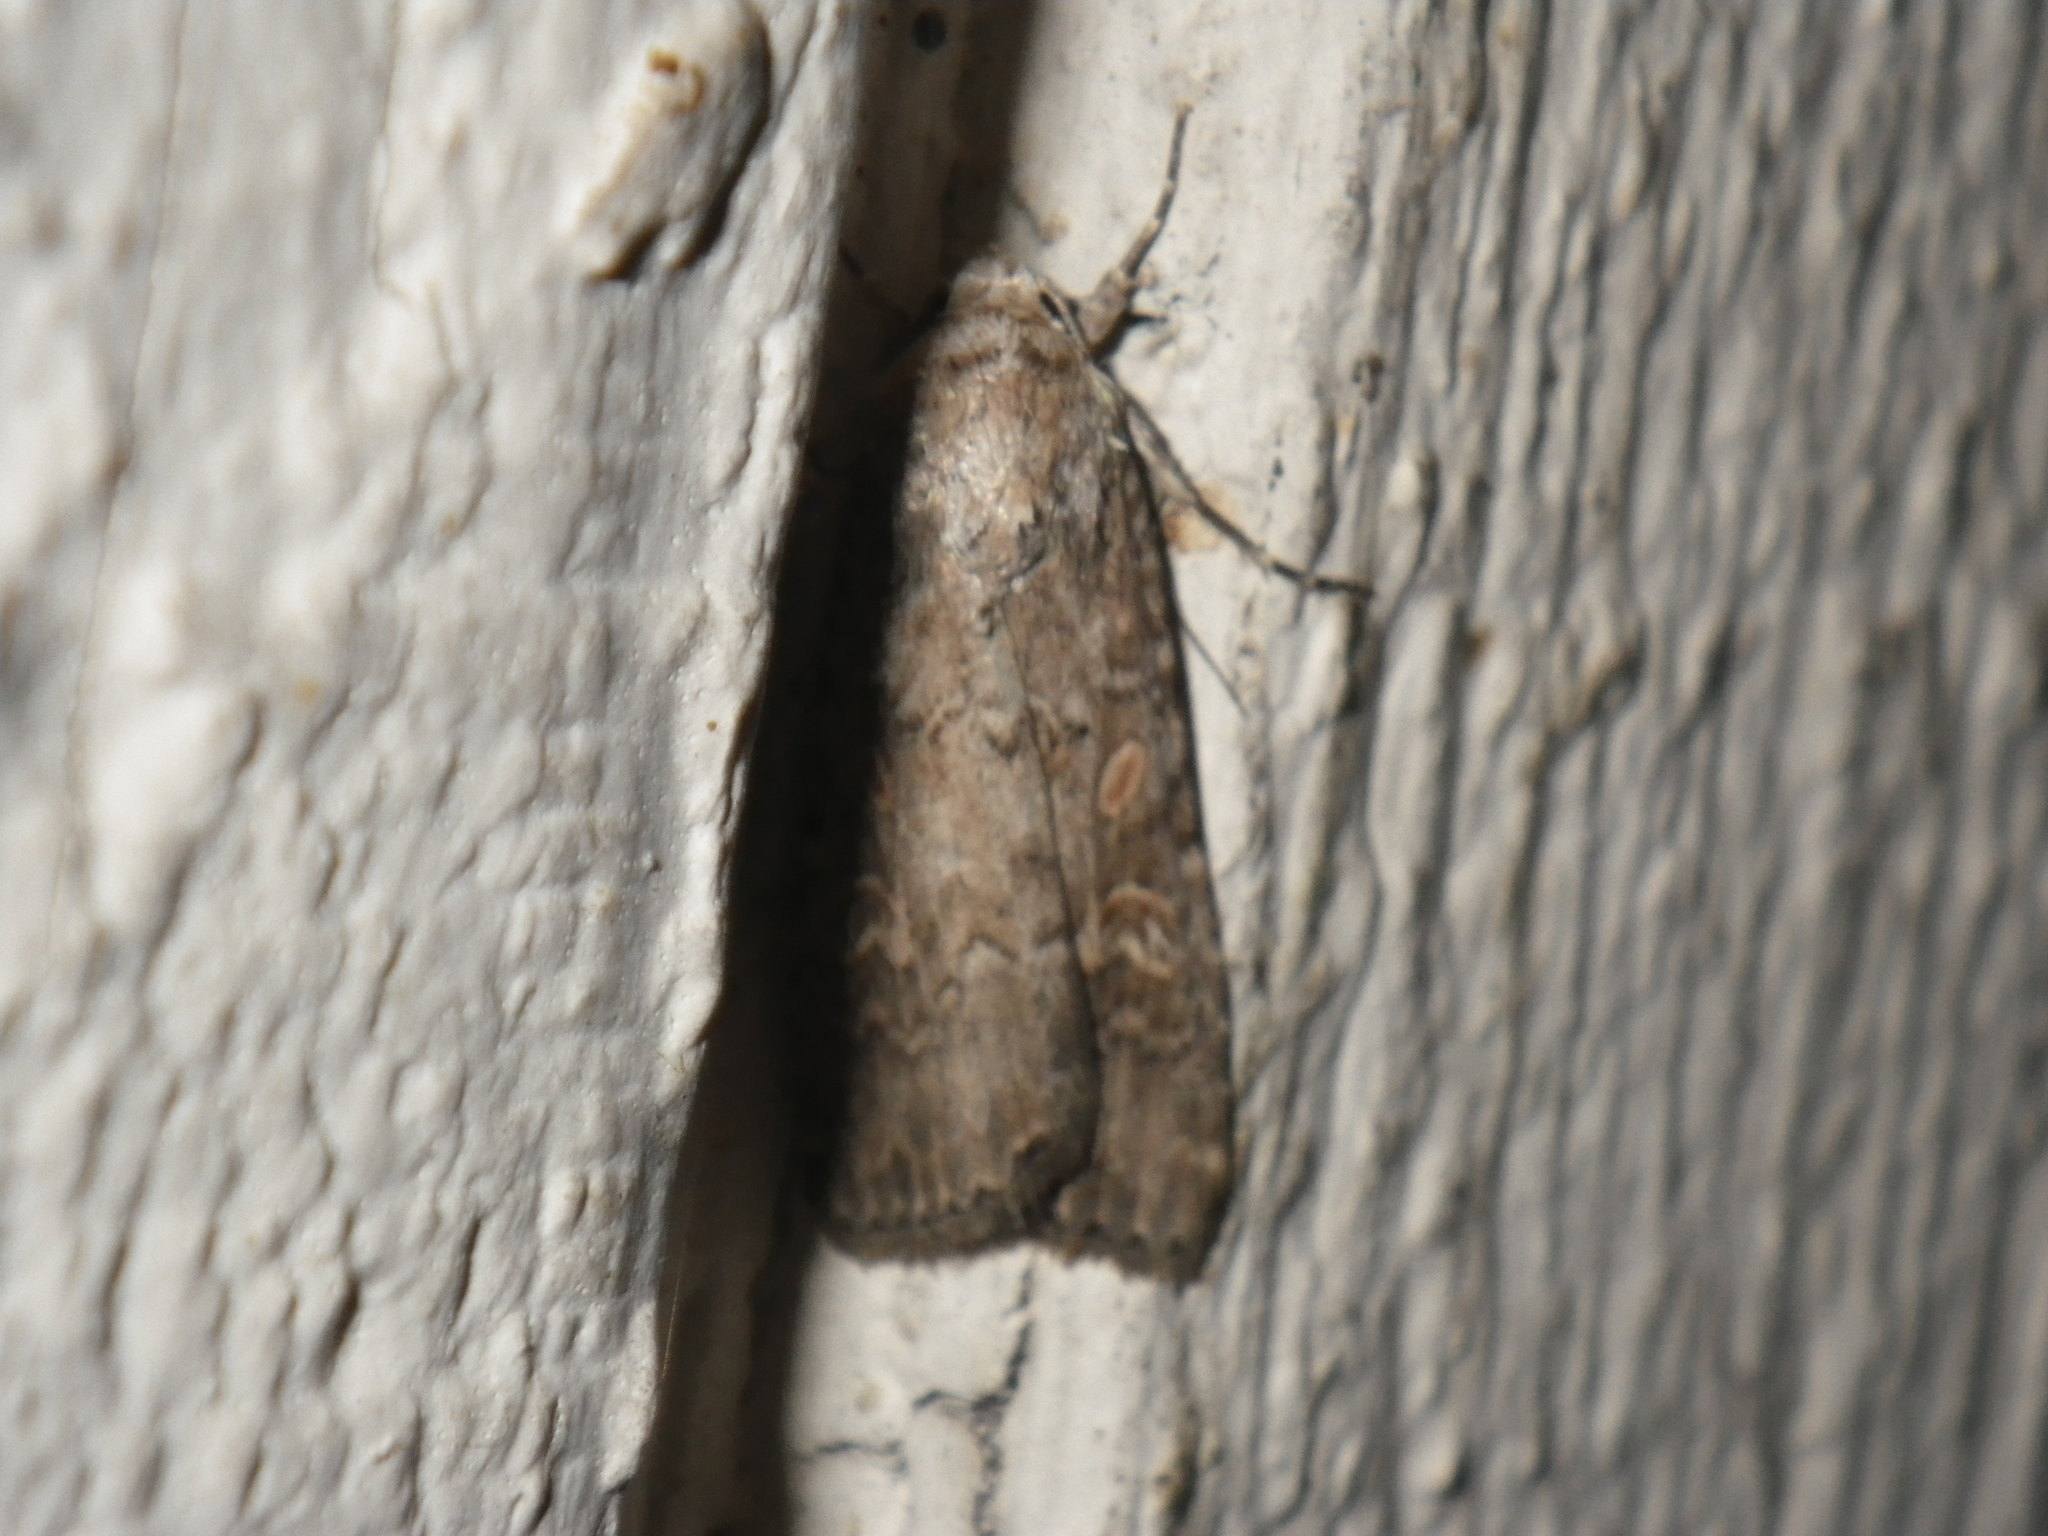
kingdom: Animalia
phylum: Arthropoda
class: Insecta
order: Lepidoptera
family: Noctuidae
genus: Spodoptera
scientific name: Spodoptera exigua
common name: Beet armyworm
